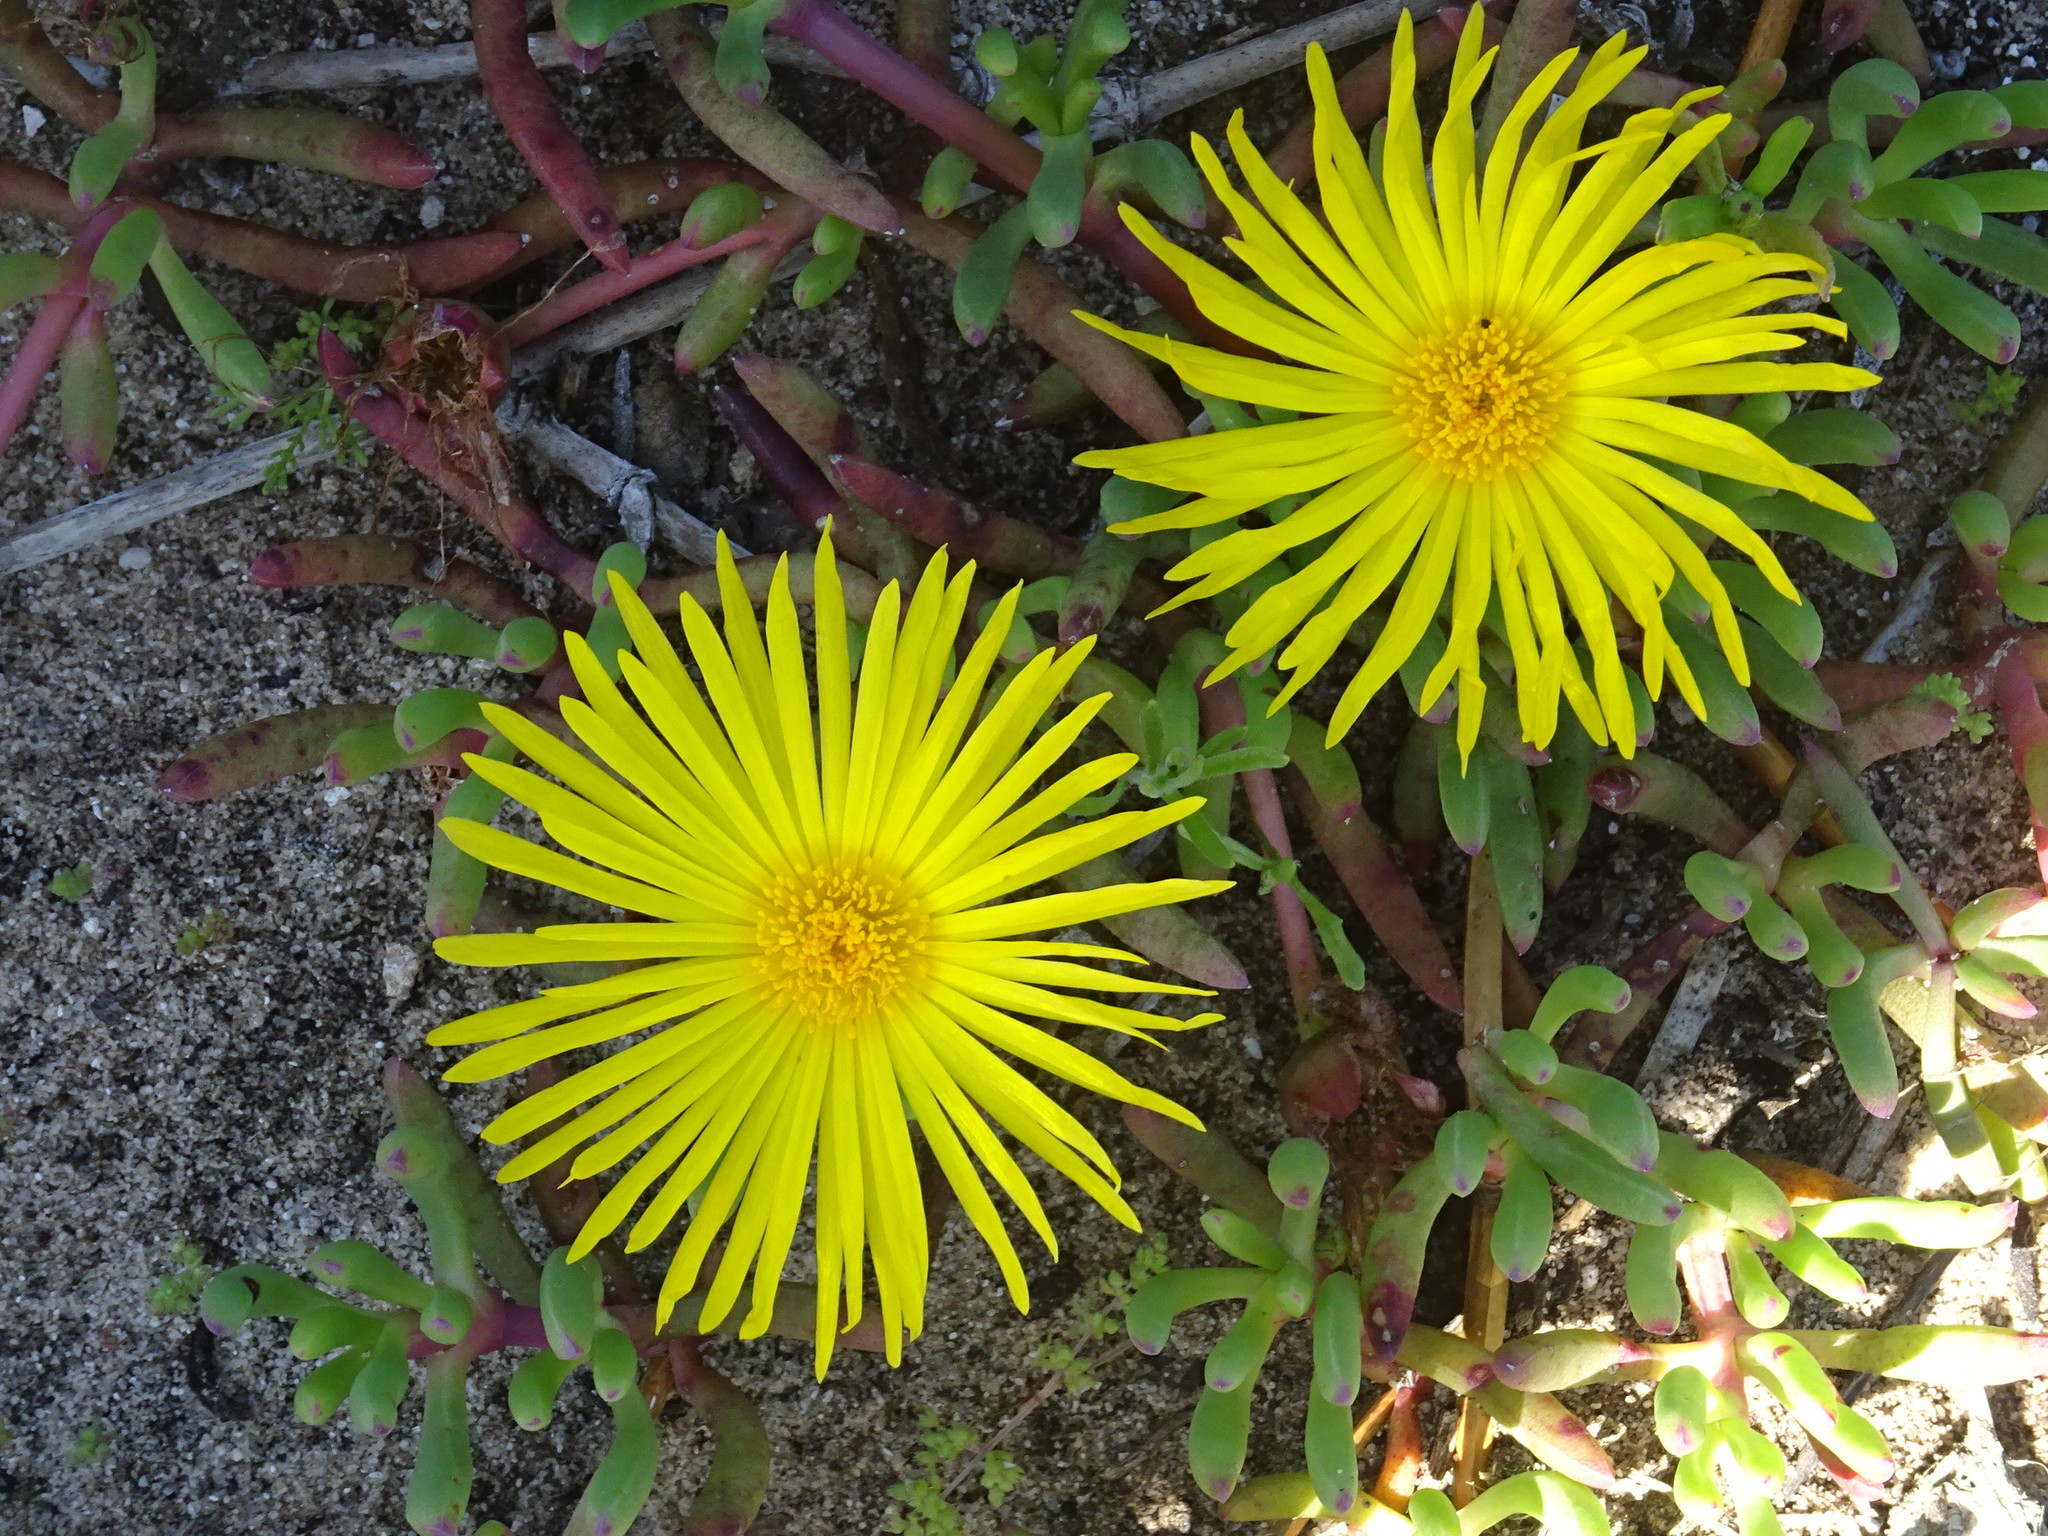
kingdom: Plantae
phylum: Tracheophyta
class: Magnoliopsida
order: Caryophyllales
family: Aizoaceae
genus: Jordaaniella
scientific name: Jordaaniella dubia
